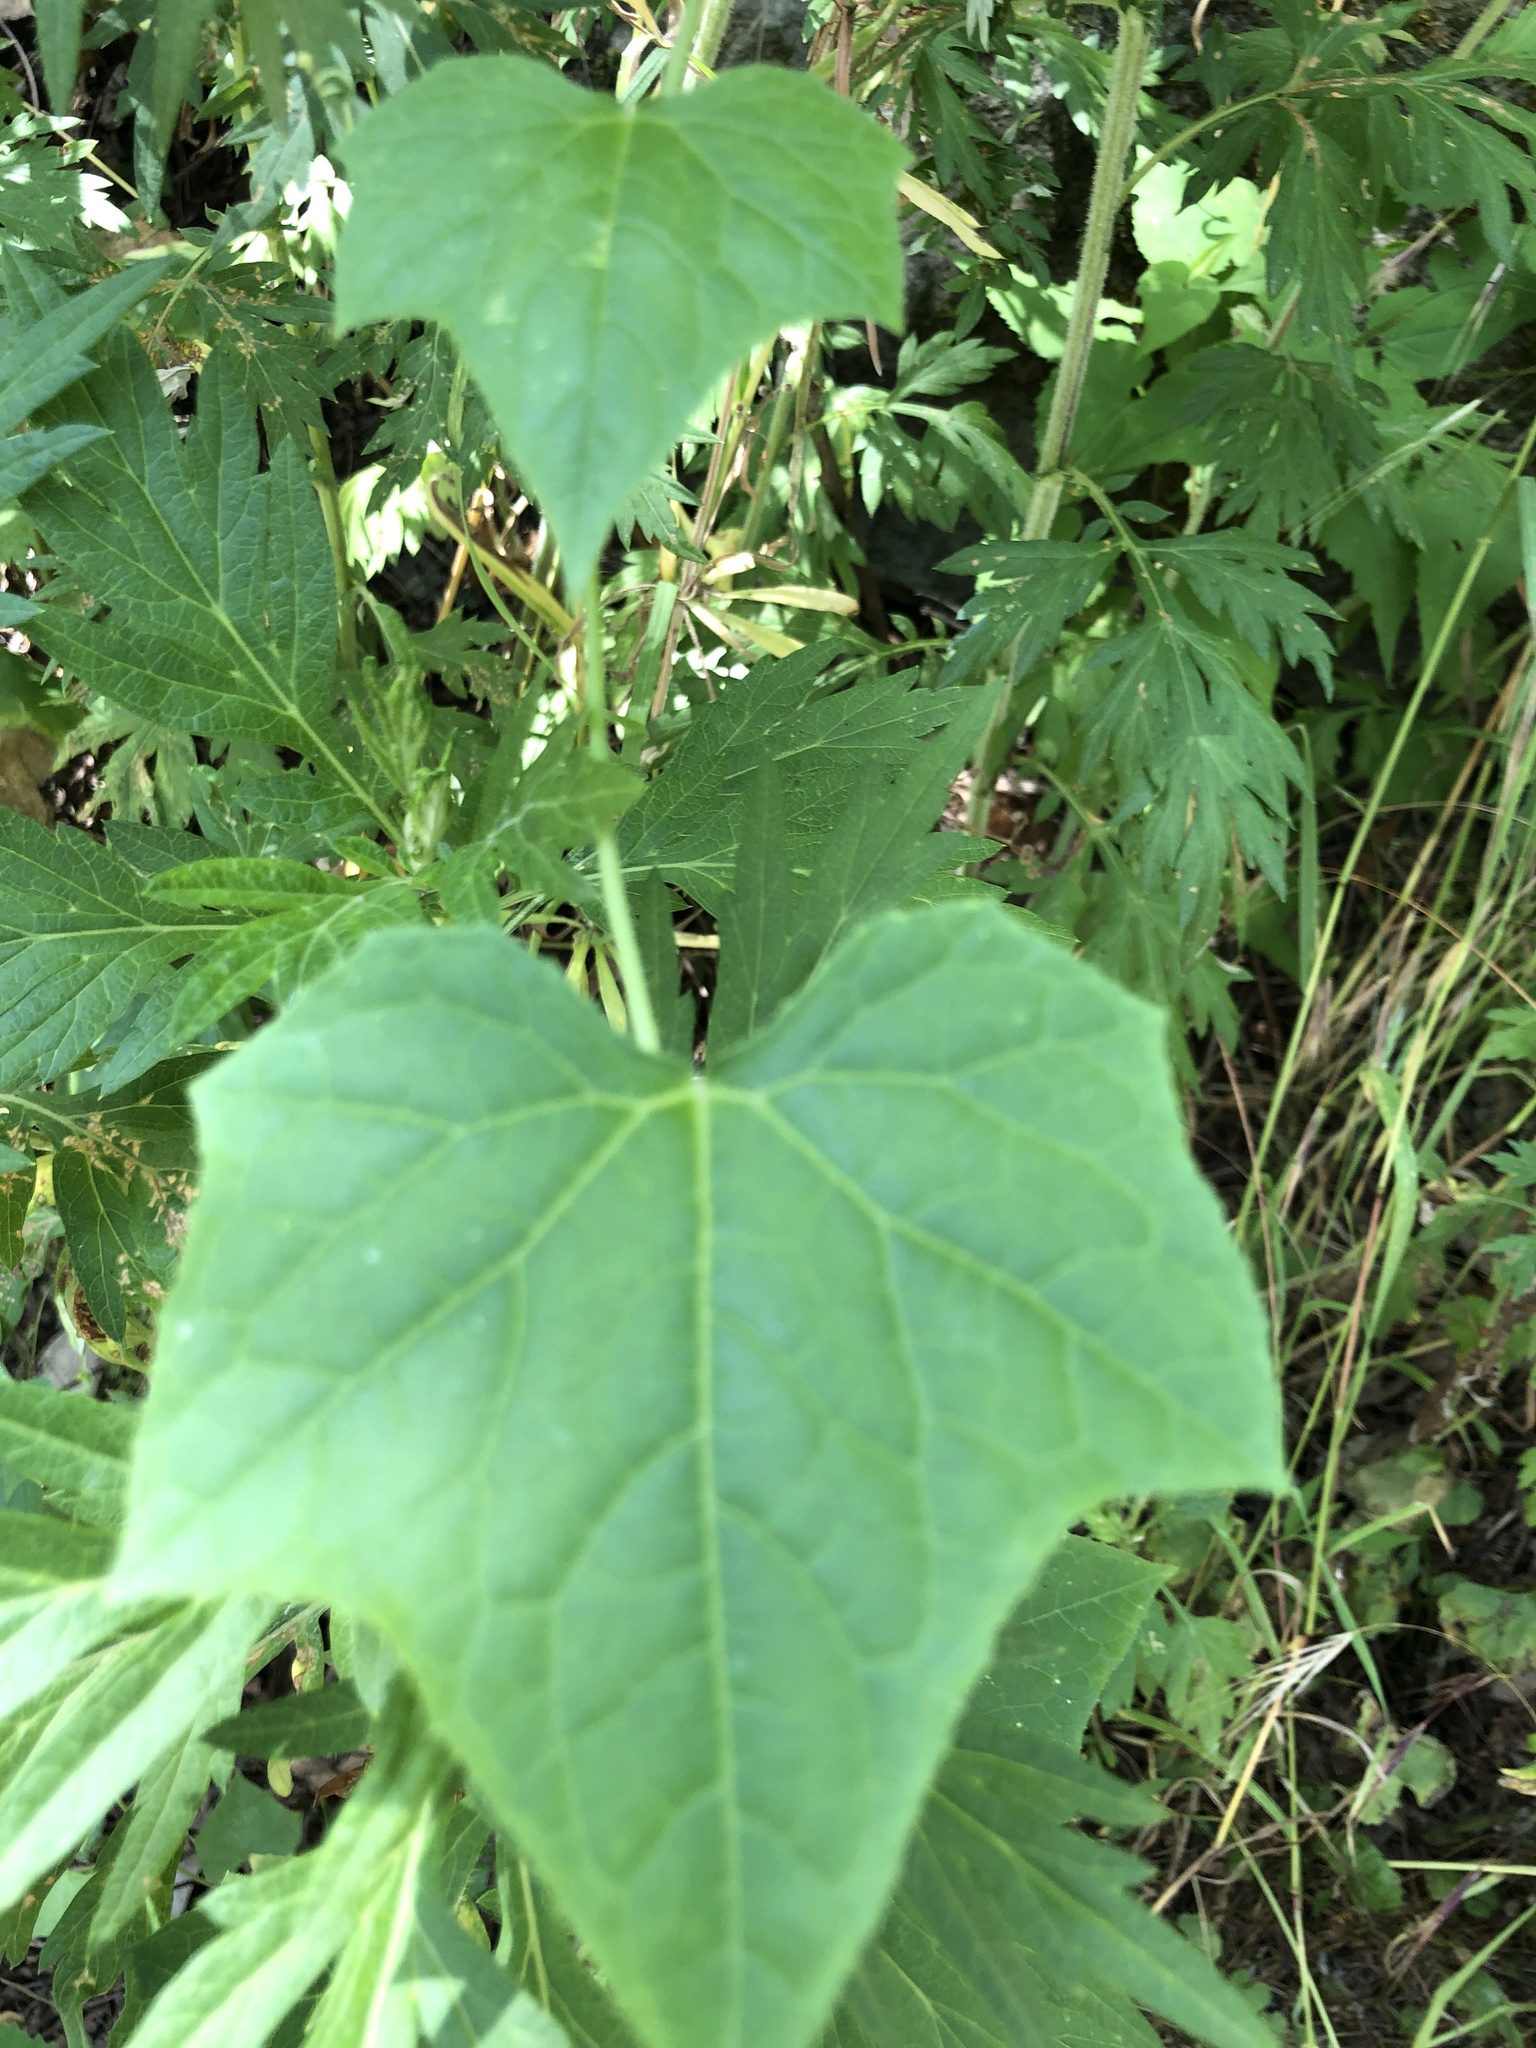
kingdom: Plantae
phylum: Tracheophyta
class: Magnoliopsida
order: Cucurbitales
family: Cucurbitaceae
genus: Echinocystis
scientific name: Echinocystis lobata
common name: Wild cucumber
